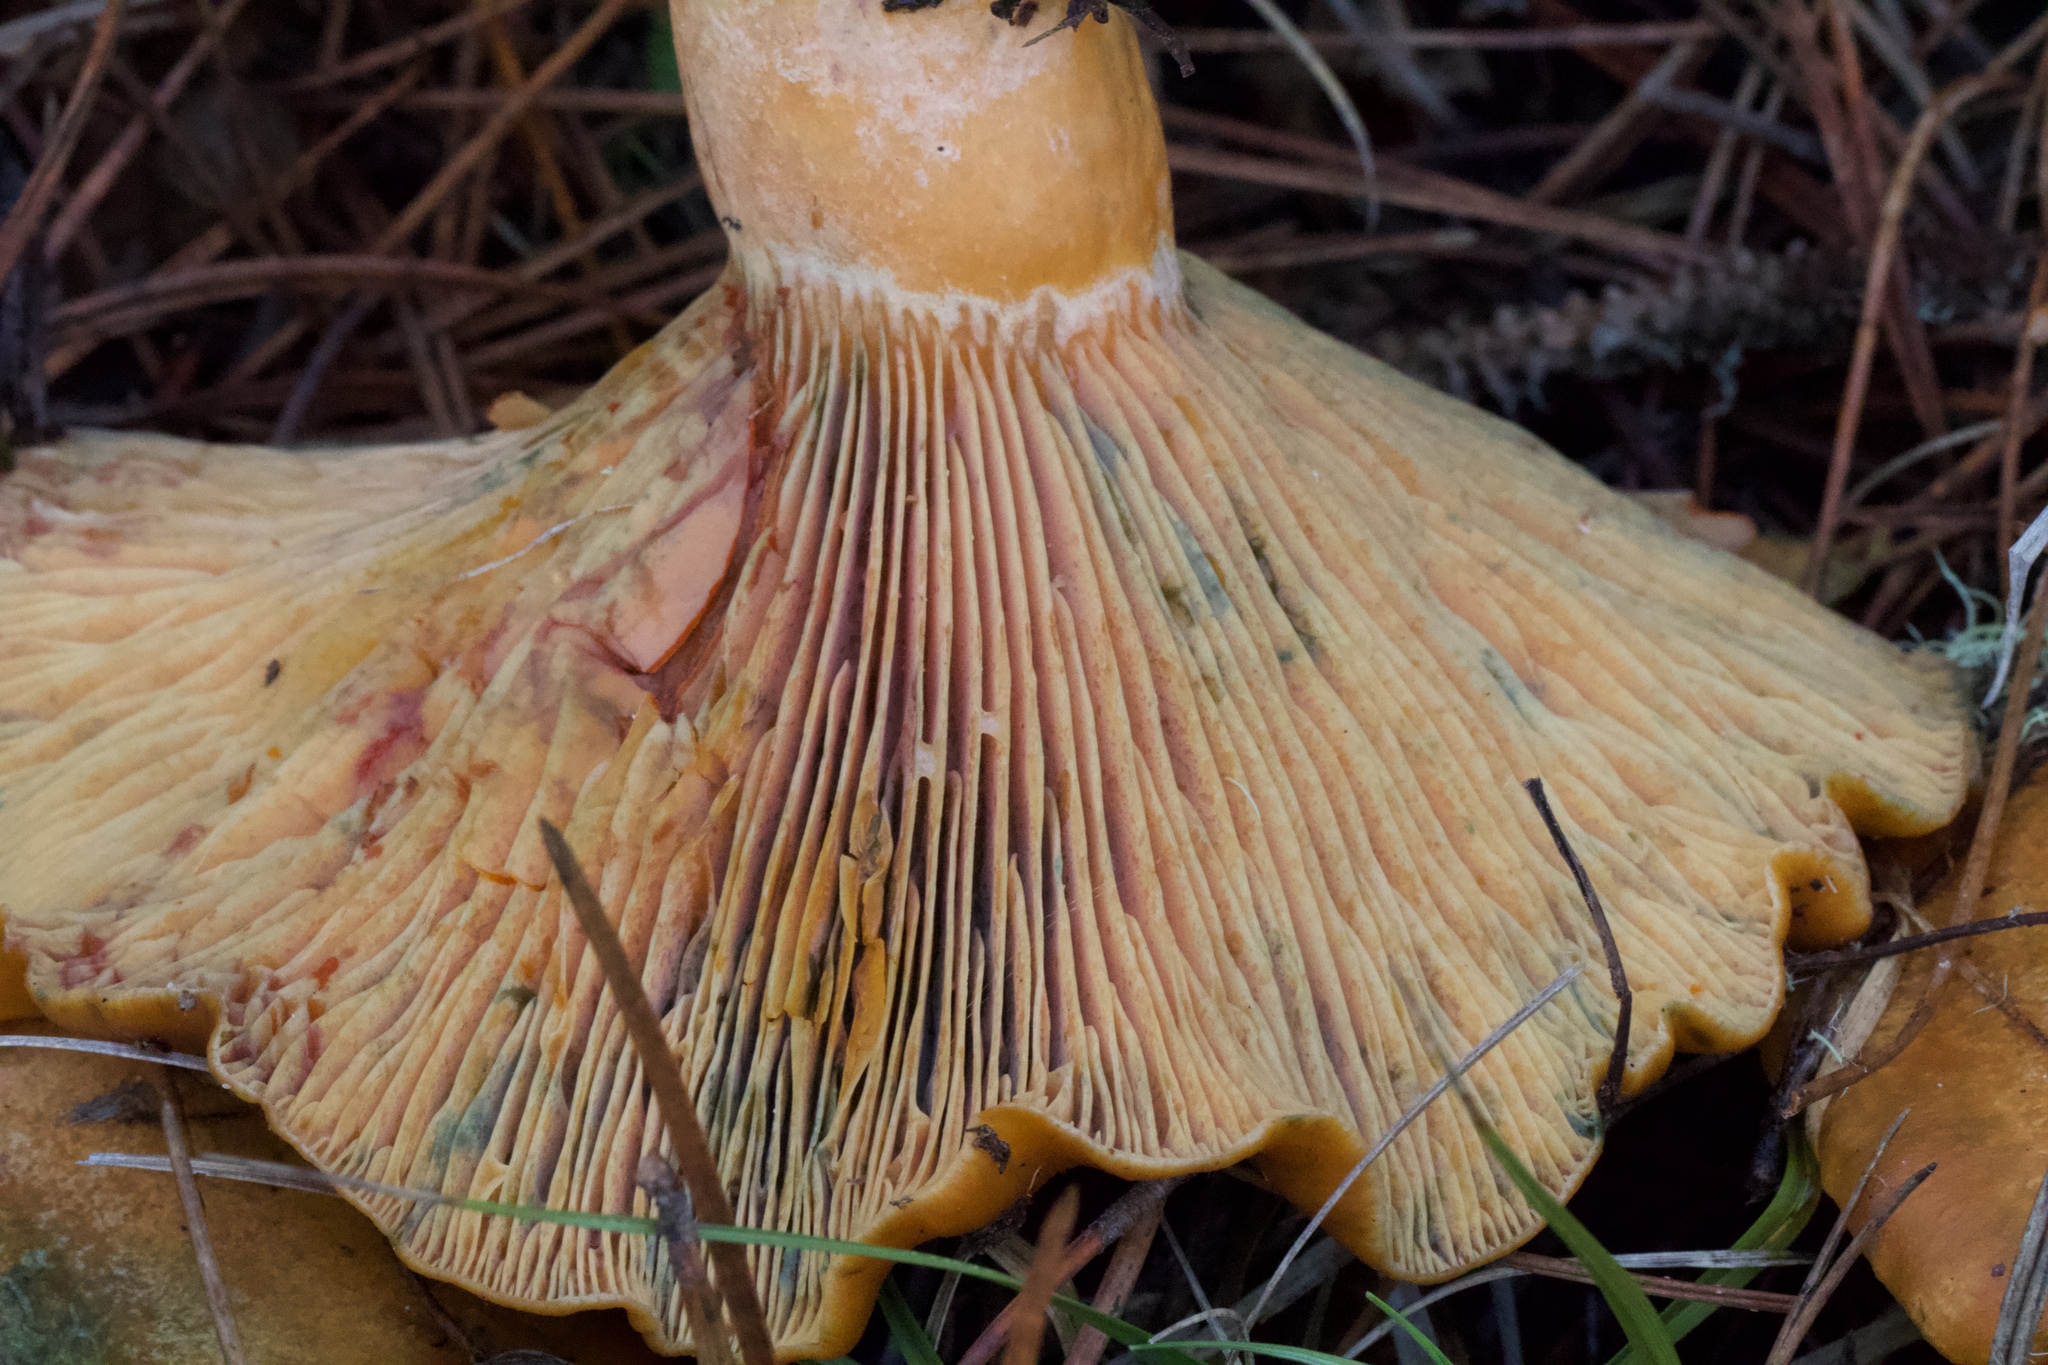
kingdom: Fungi
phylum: Basidiomycota
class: Agaricomycetes
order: Russulales
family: Russulaceae
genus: Lactarius
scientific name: Lactarius rubrilacteus
